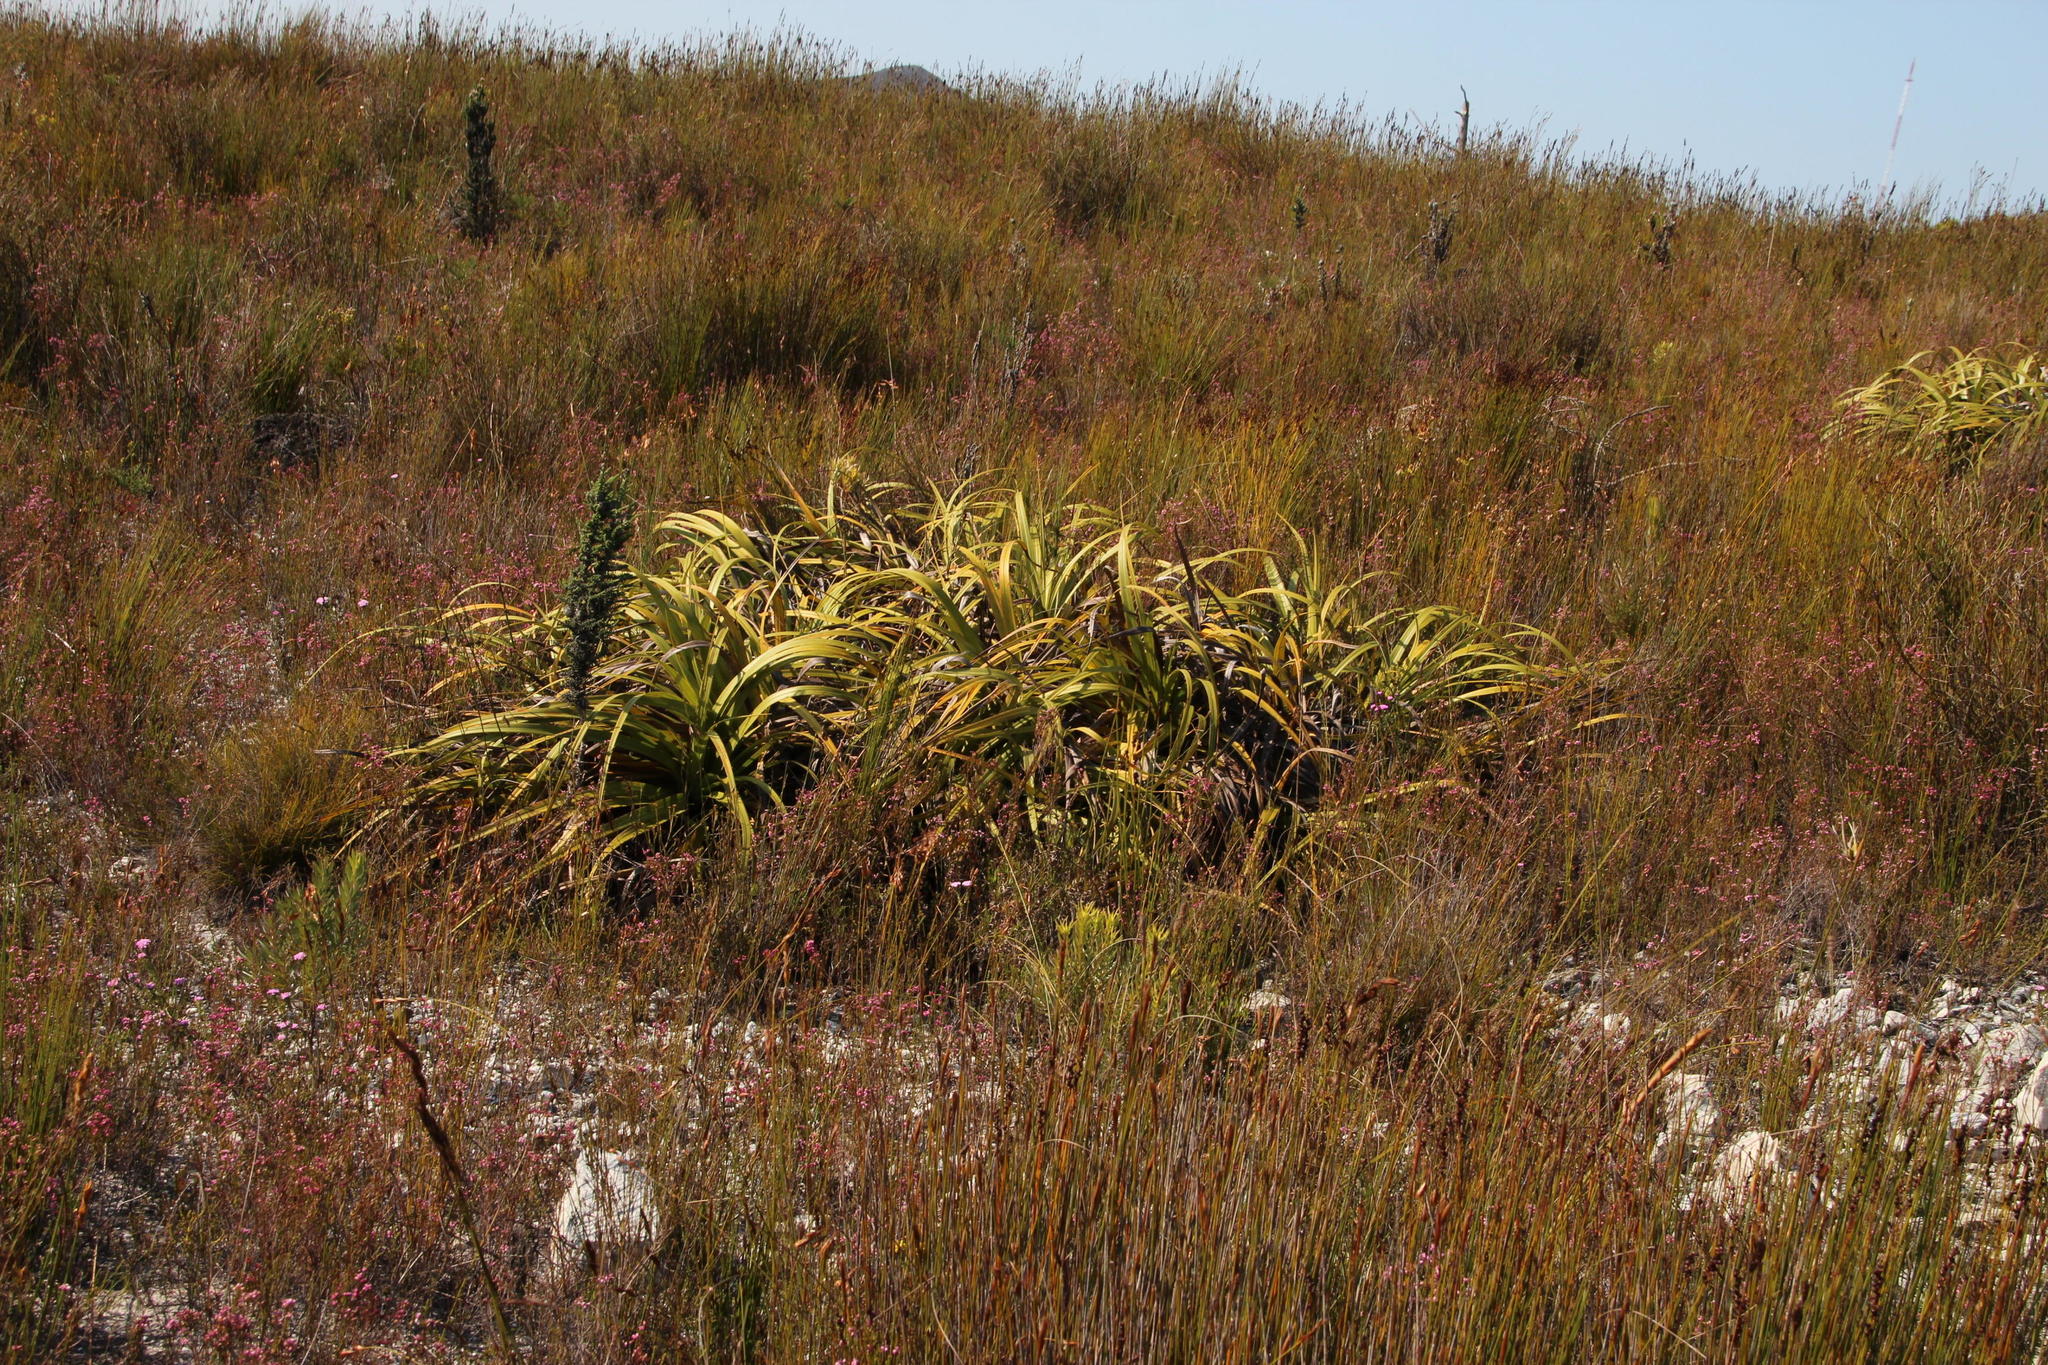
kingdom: Plantae
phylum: Tracheophyta
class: Liliopsida
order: Poales
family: Cyperaceae
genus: Tetraria
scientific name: Tetraria thermalis
